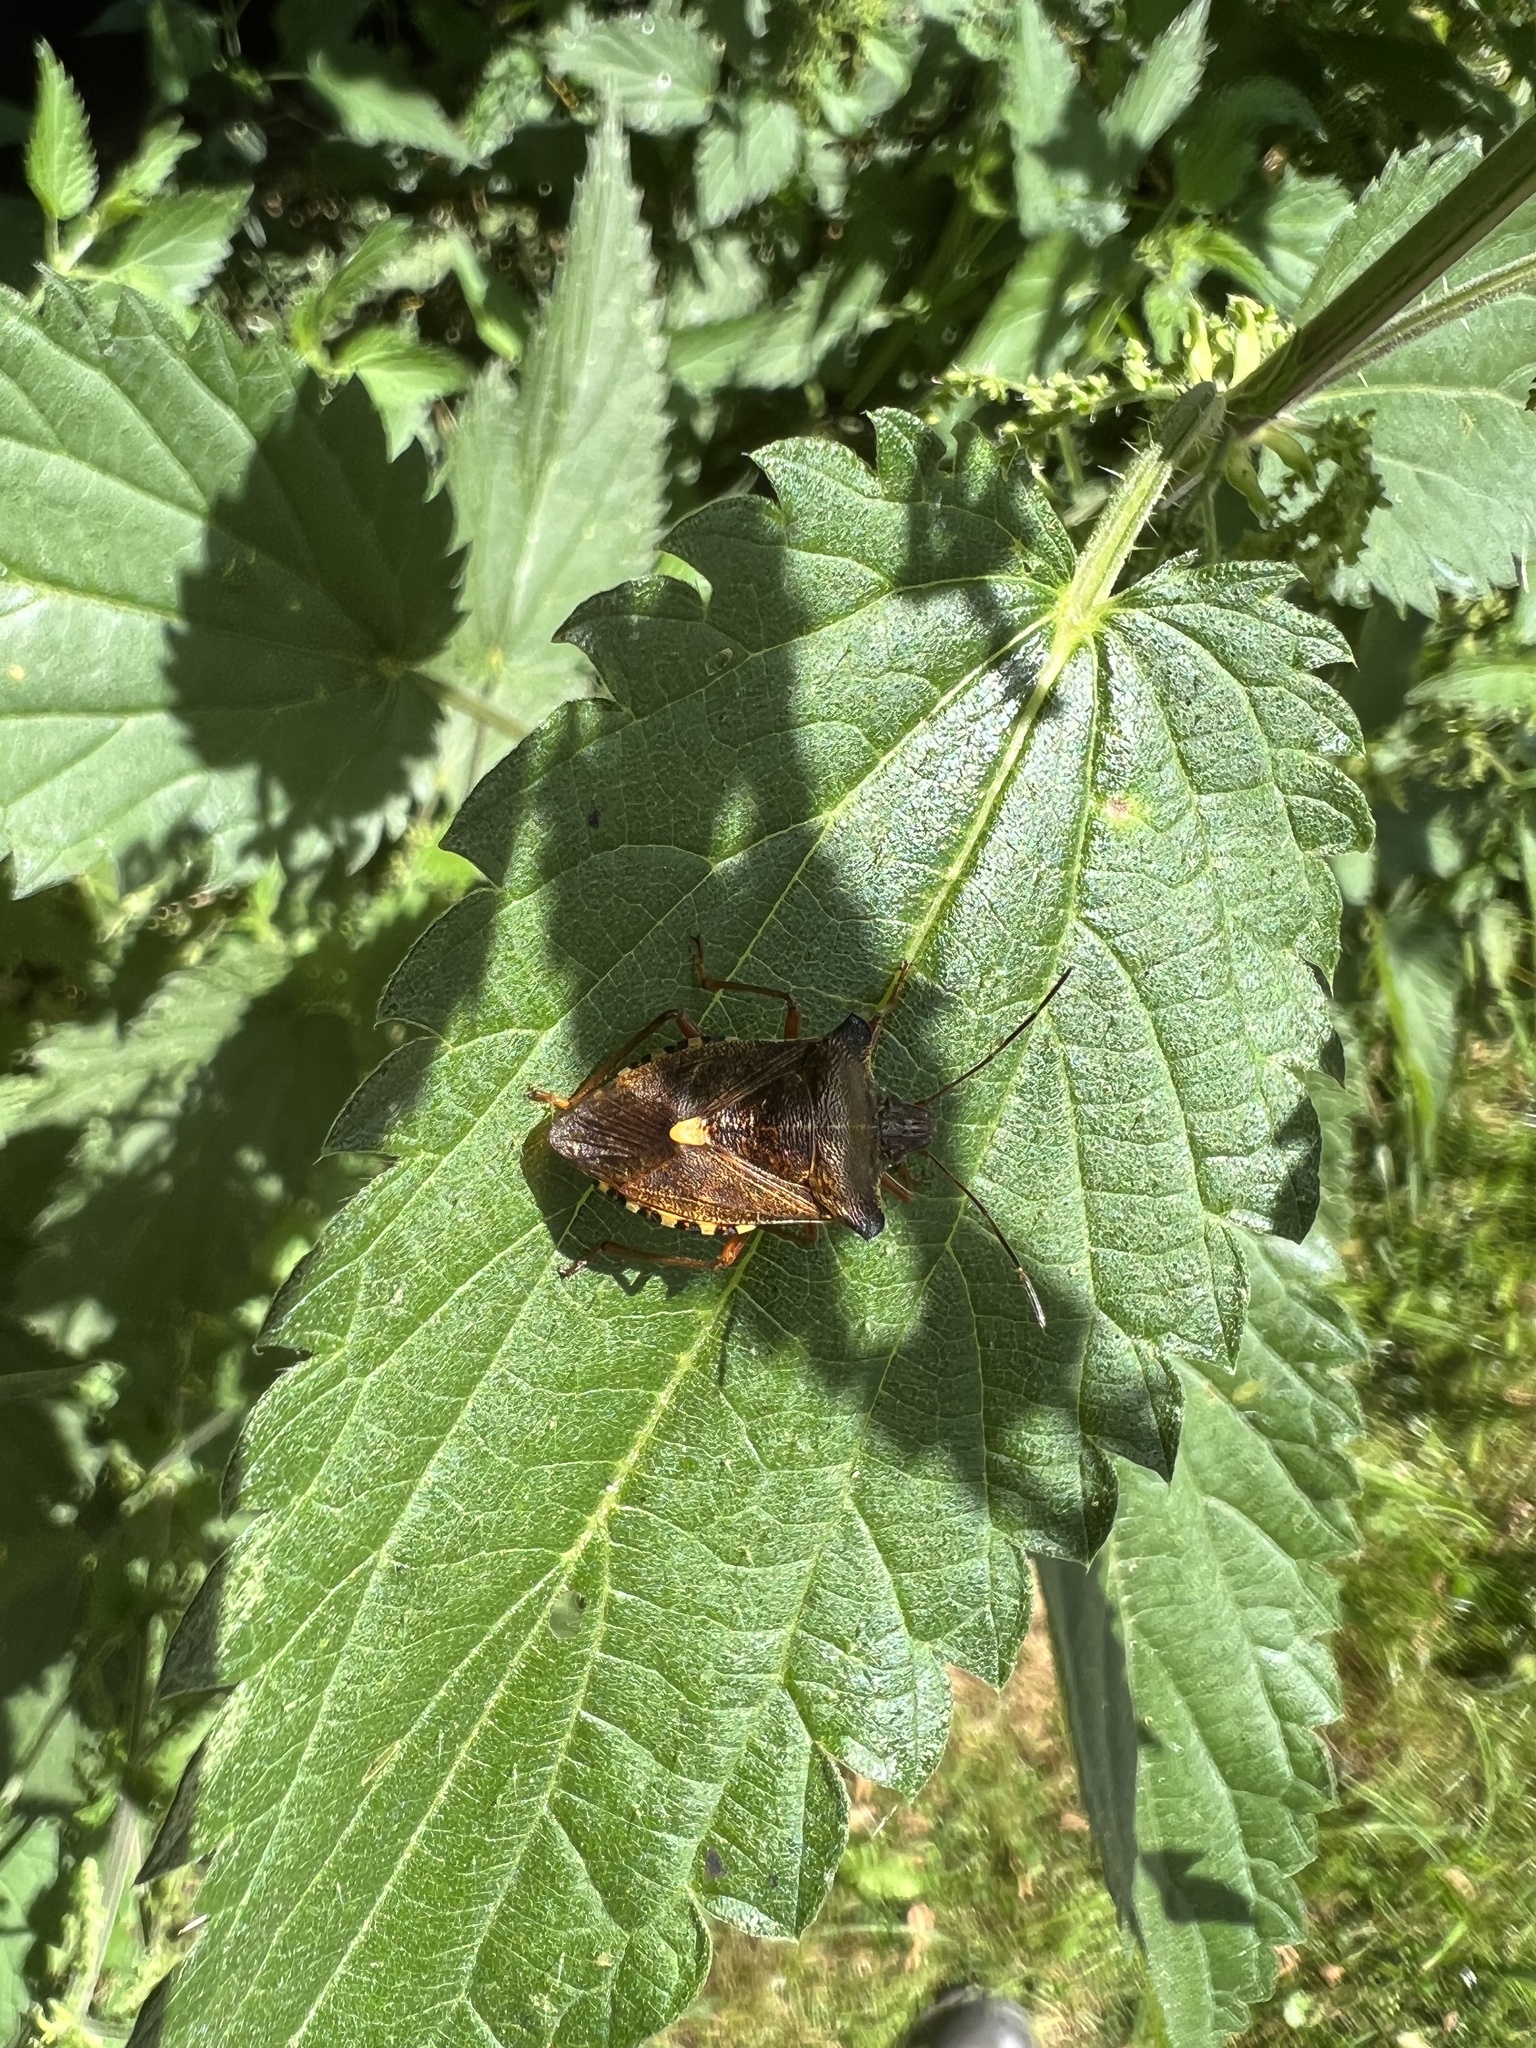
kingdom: Animalia
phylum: Arthropoda
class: Insecta
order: Hemiptera
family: Pentatomidae
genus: Pentatoma
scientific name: Pentatoma rufipes
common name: Forest bug
